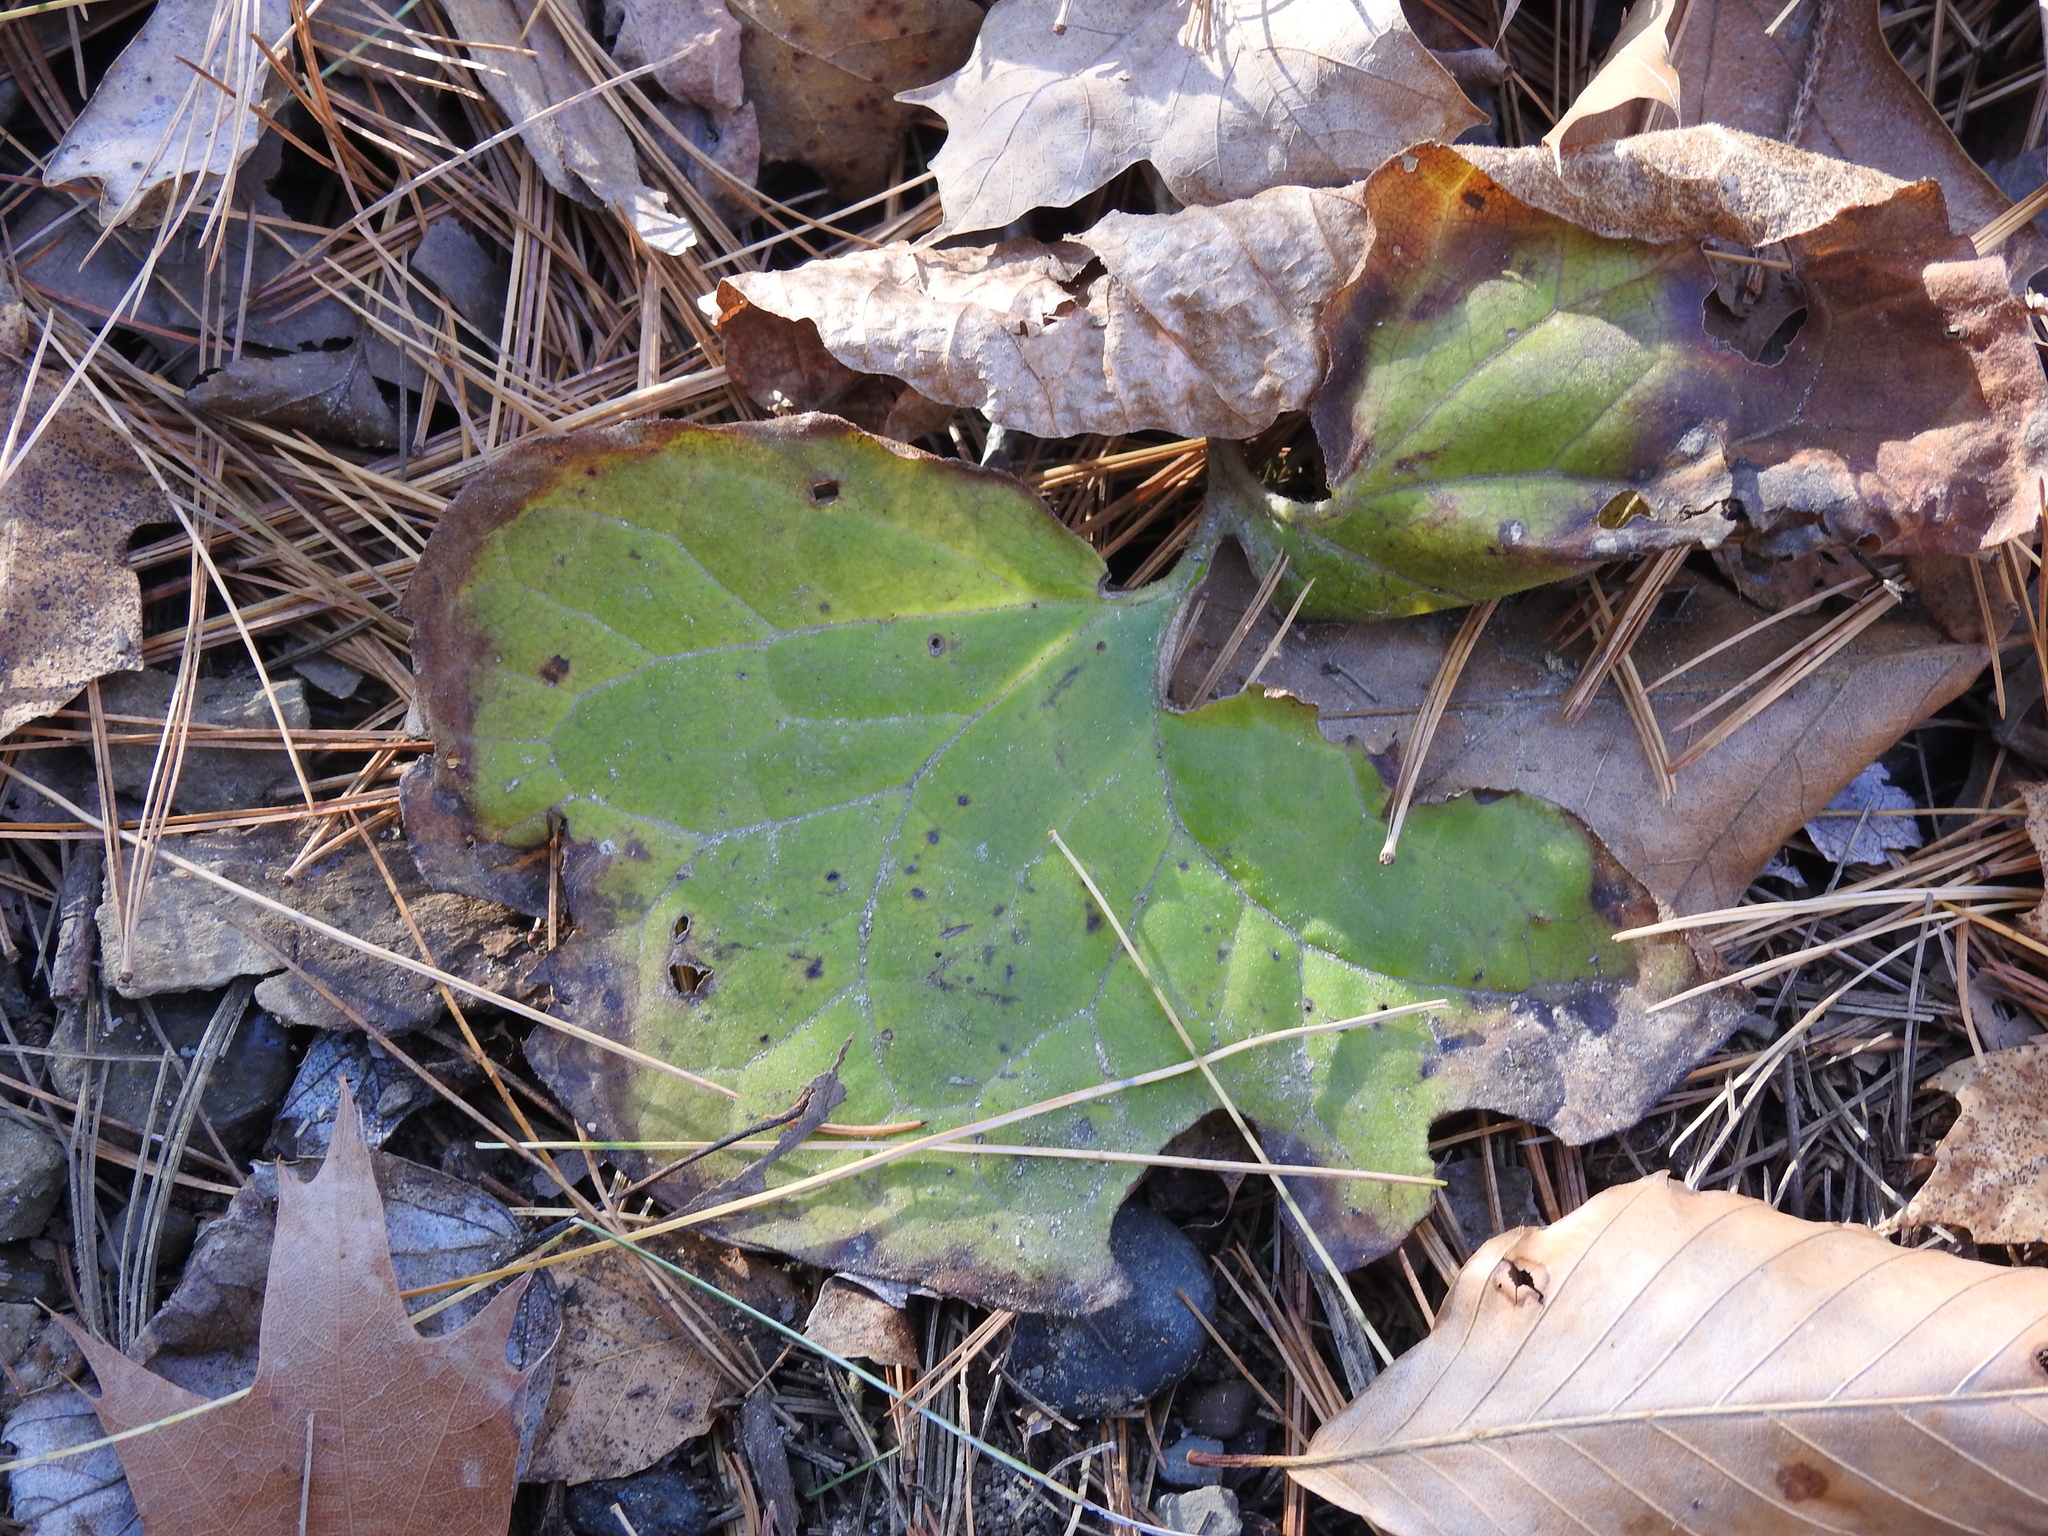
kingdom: Plantae
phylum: Tracheophyta
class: Magnoliopsida
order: Asterales
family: Asteraceae
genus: Tussilago
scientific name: Tussilago farfara
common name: Coltsfoot
